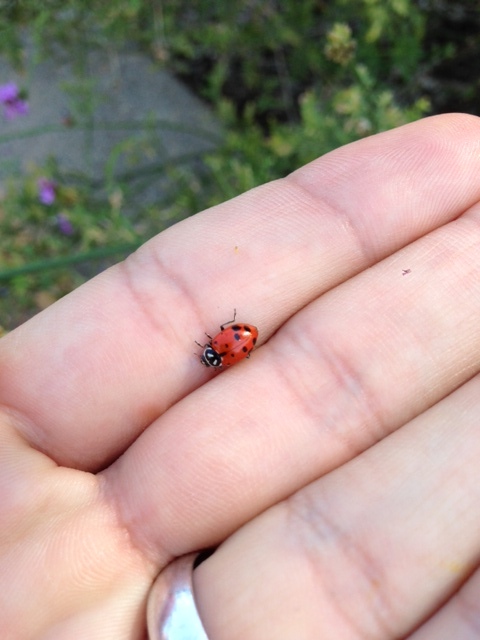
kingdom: Animalia
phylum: Arthropoda
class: Insecta
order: Coleoptera
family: Coccinellidae
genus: Hippodamia
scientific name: Hippodamia convergens
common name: Convergent lady beetle
